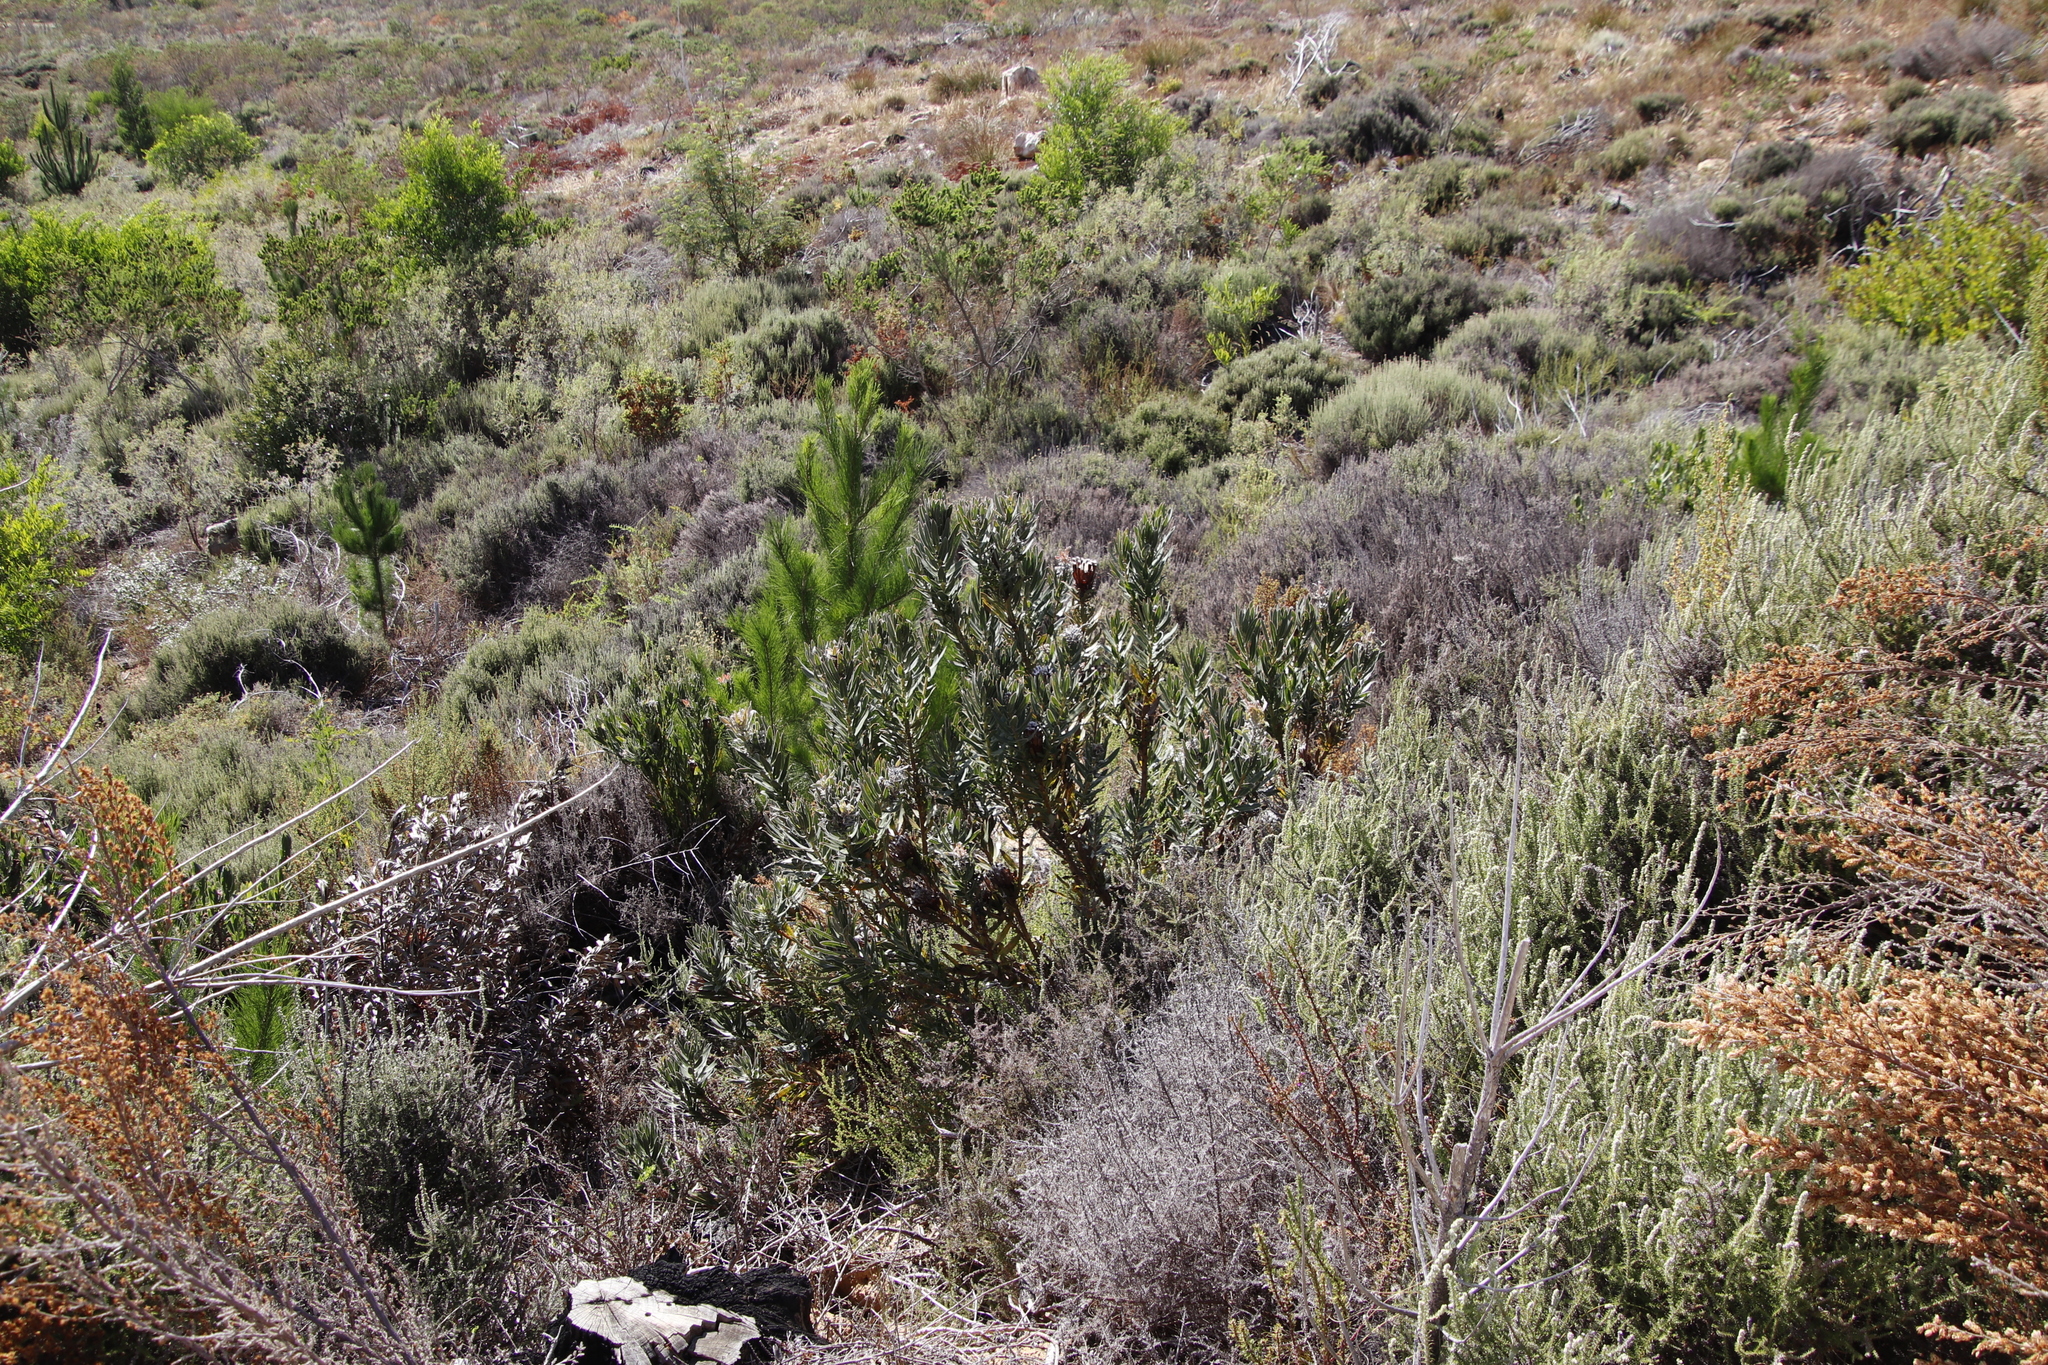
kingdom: Plantae
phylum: Tracheophyta
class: Magnoliopsida
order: Proteales
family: Proteaceae
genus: Protea
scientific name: Protea lepidocarpodendron
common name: Black-bearded protea
